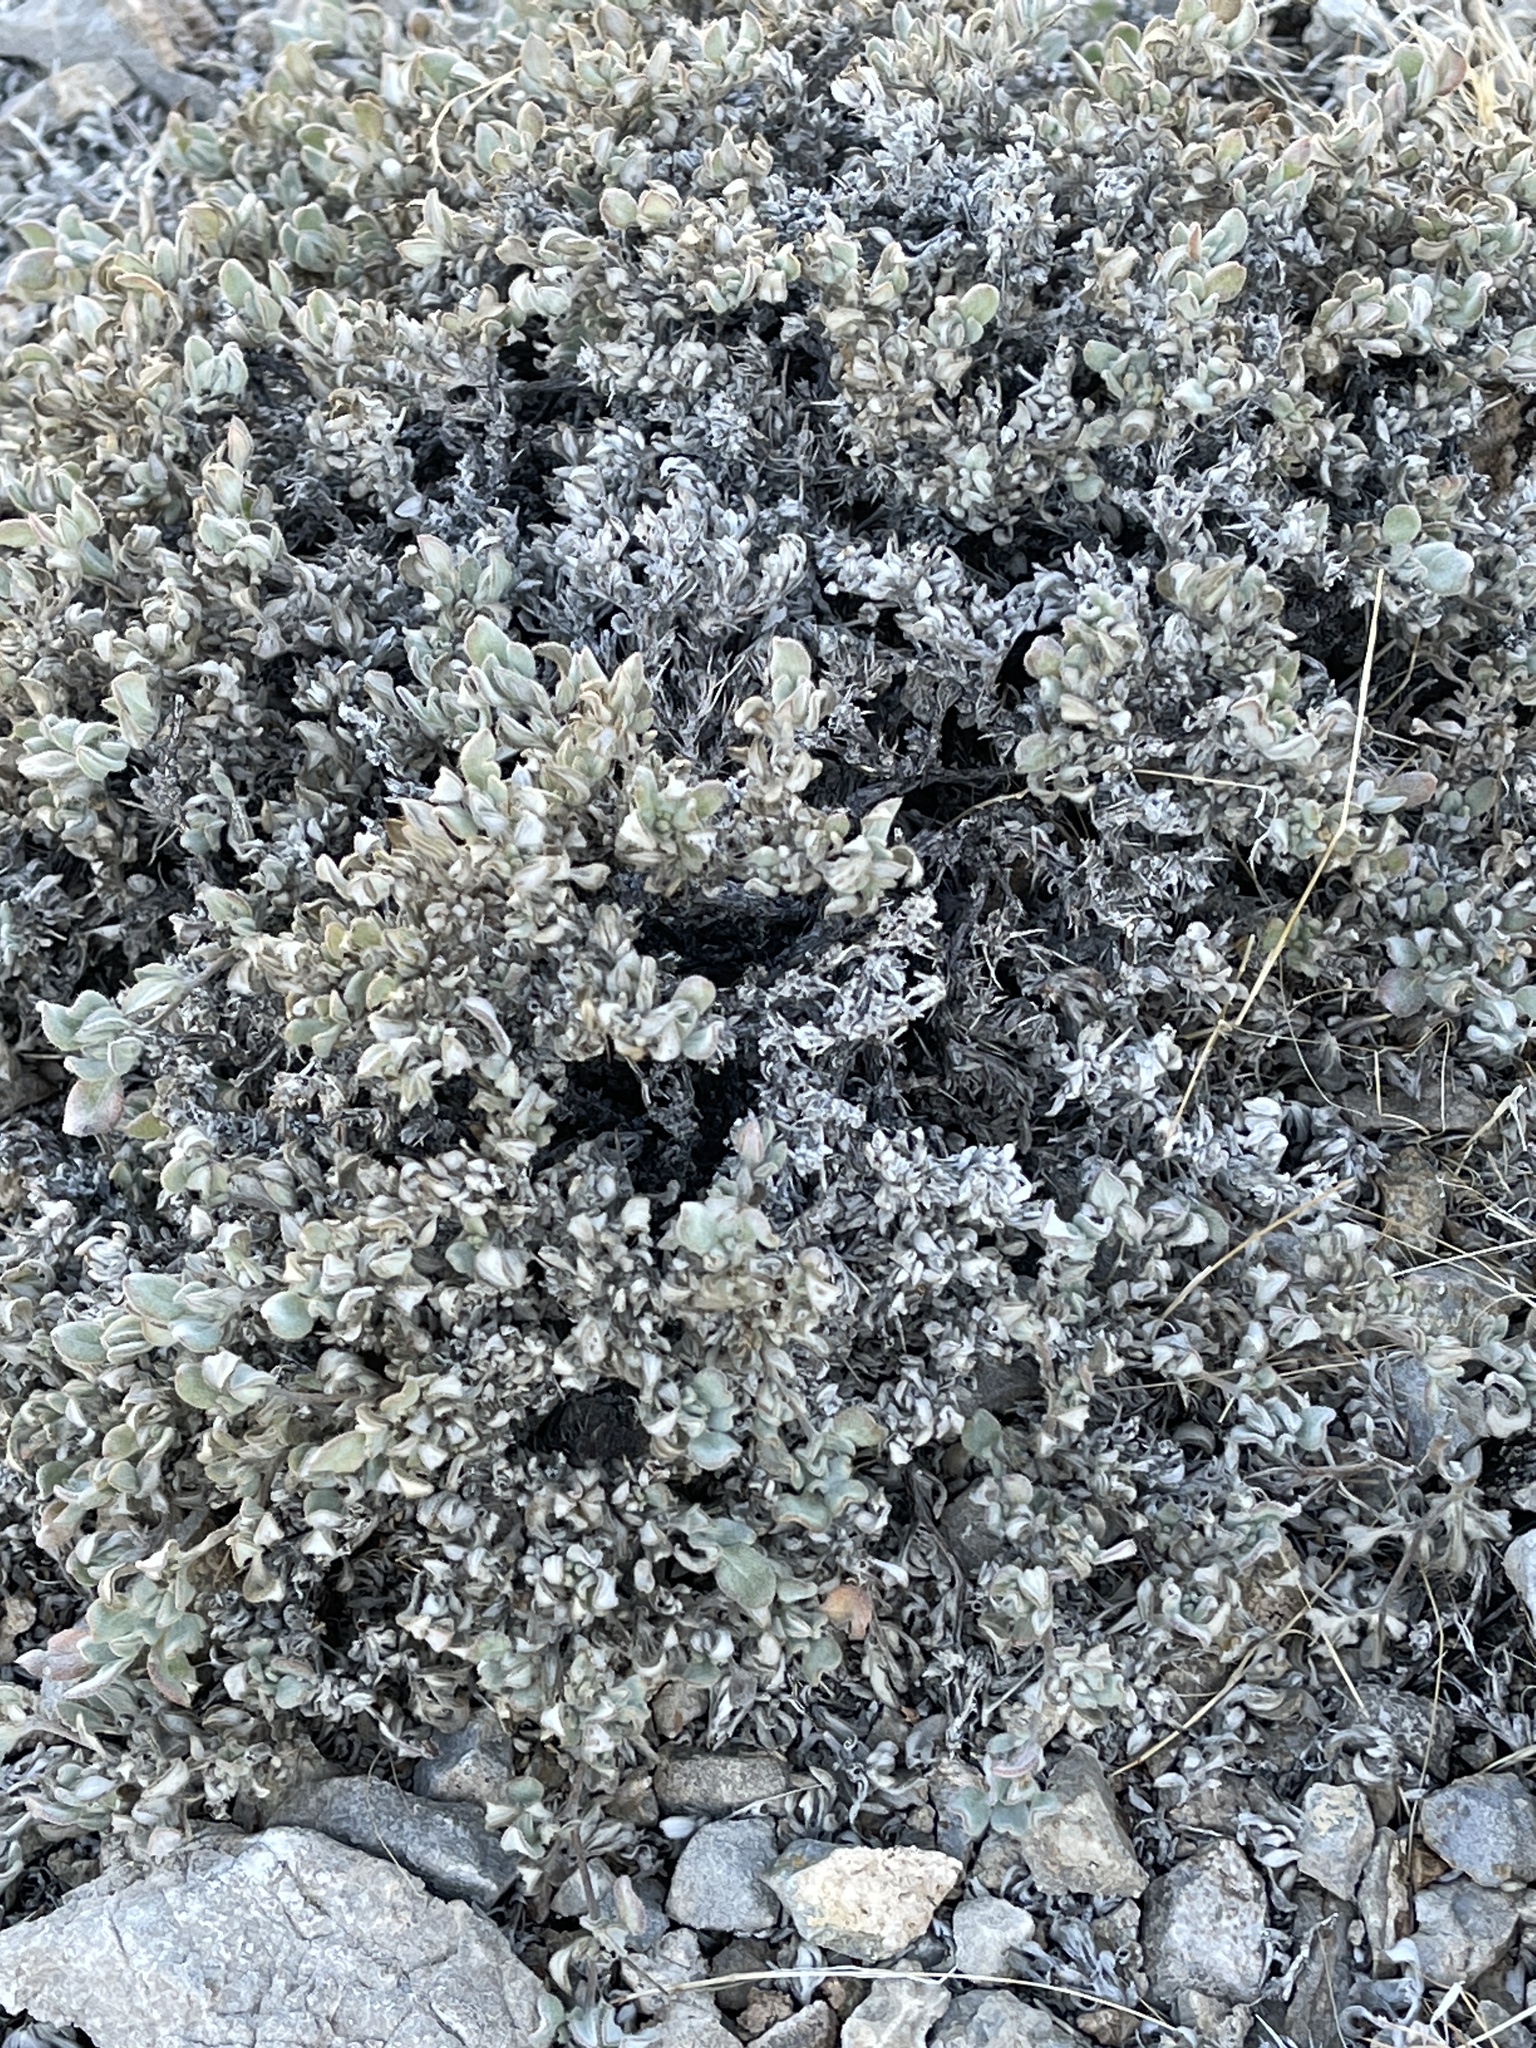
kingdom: Plantae
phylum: Tracheophyta
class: Magnoliopsida
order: Boraginales
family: Ehretiaceae
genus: Tiquilia
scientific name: Tiquilia canescens
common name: Hairy tiquilia
